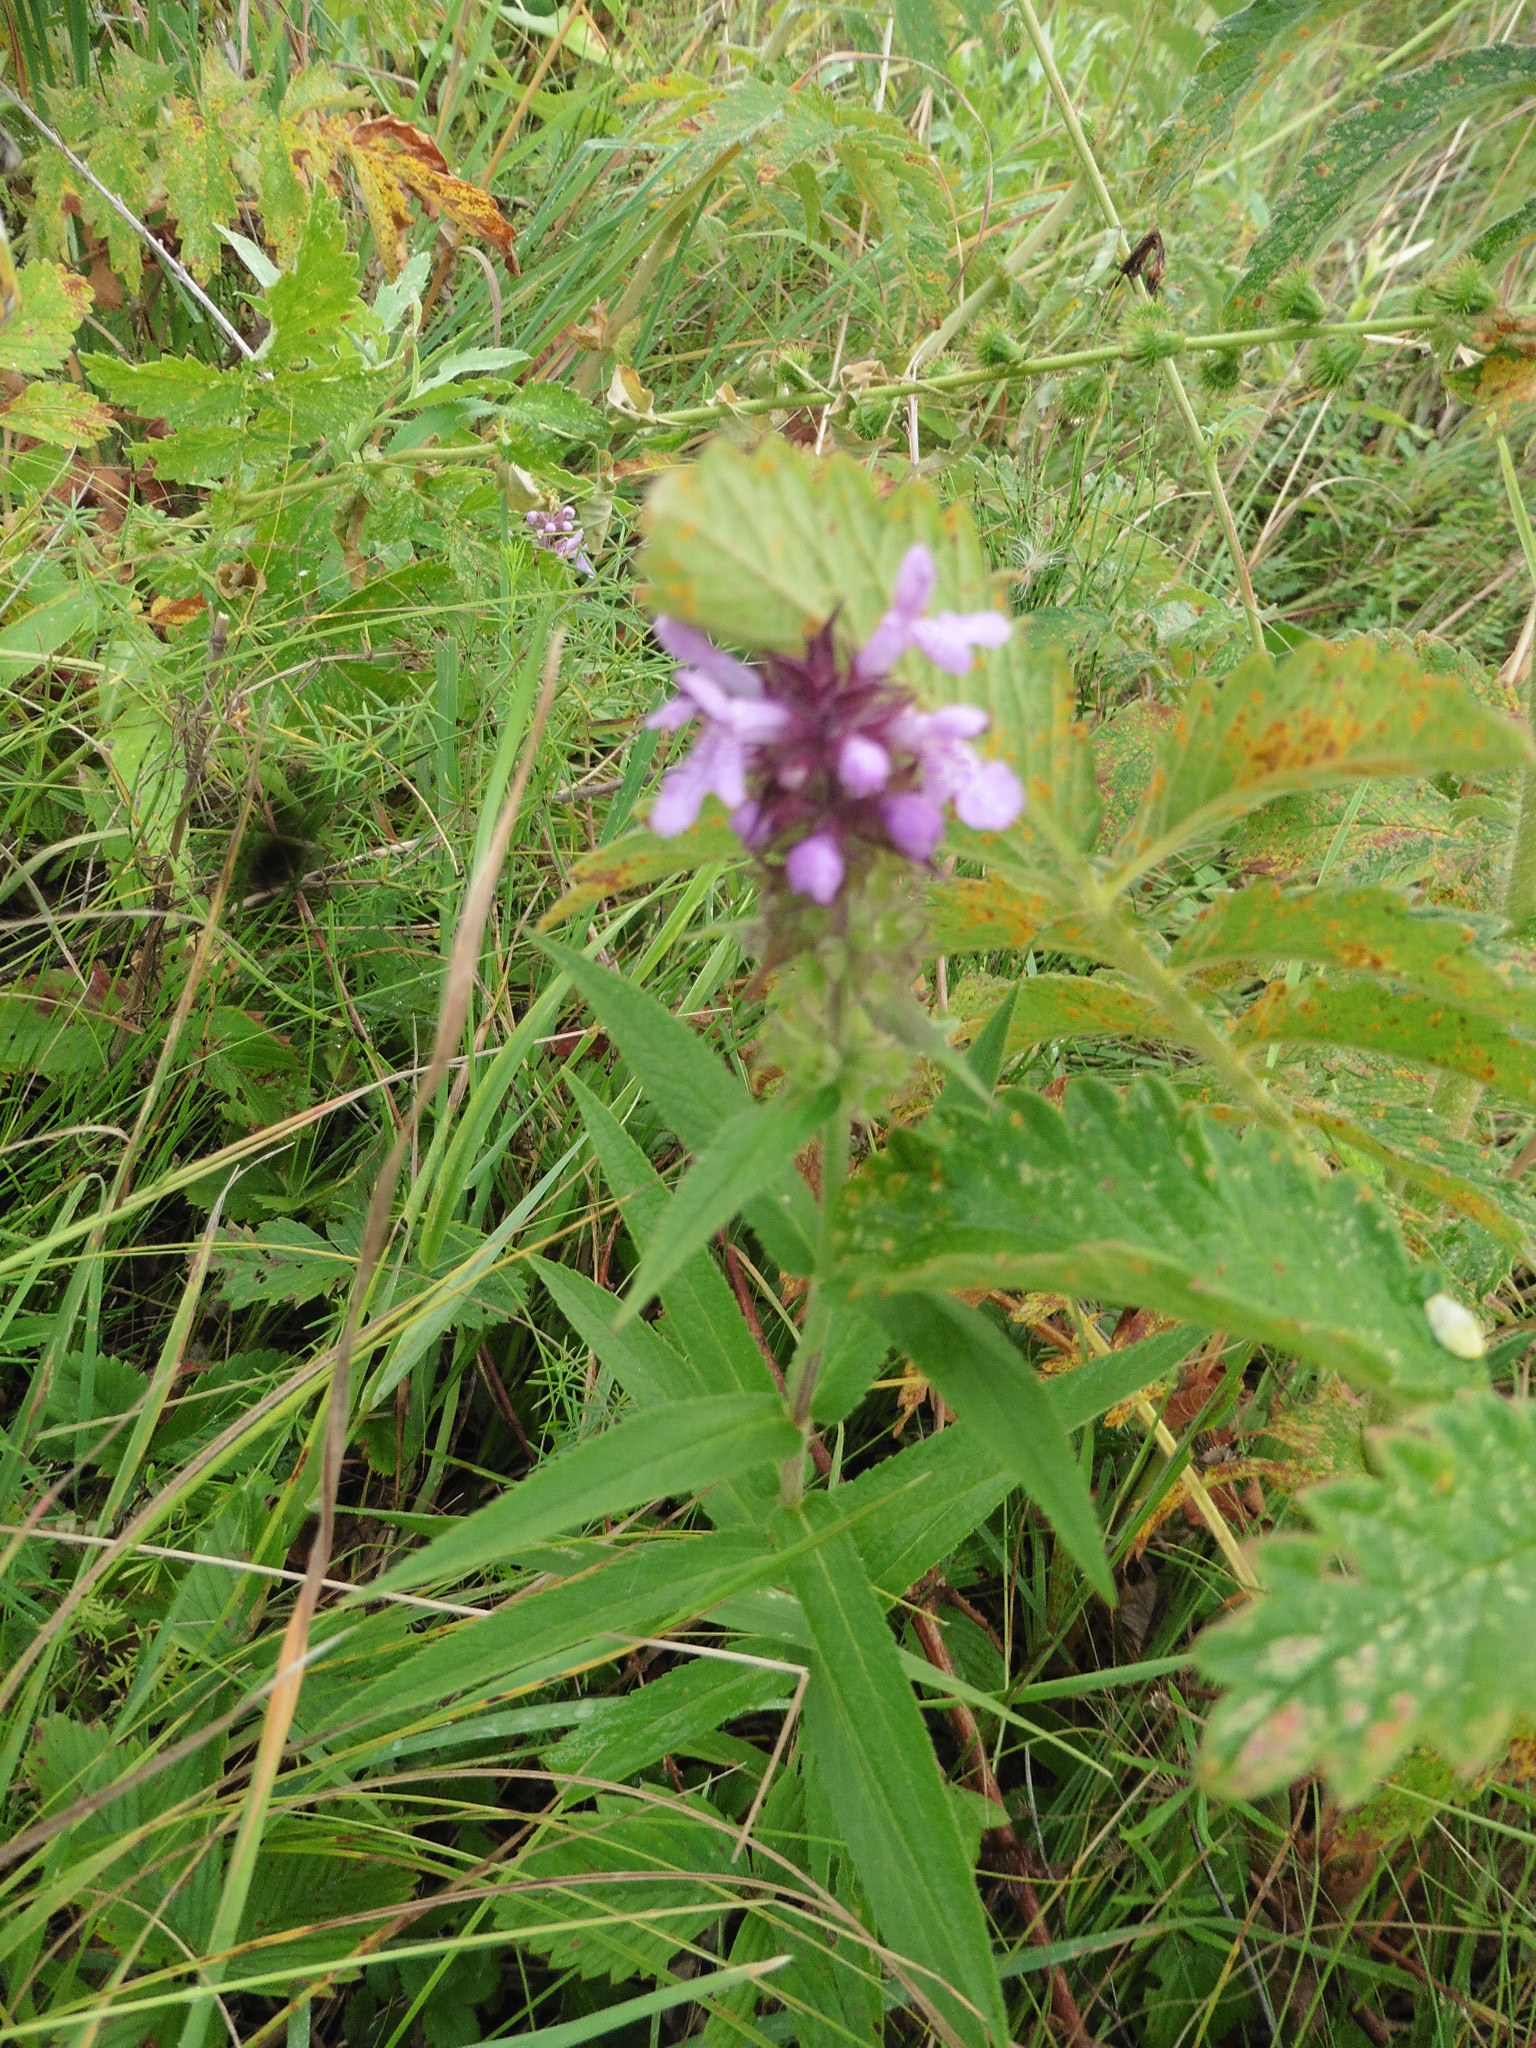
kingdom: Plantae
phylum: Tracheophyta
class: Magnoliopsida
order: Lamiales
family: Lamiaceae
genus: Stachys
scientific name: Stachys palustris
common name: Marsh woundwort
